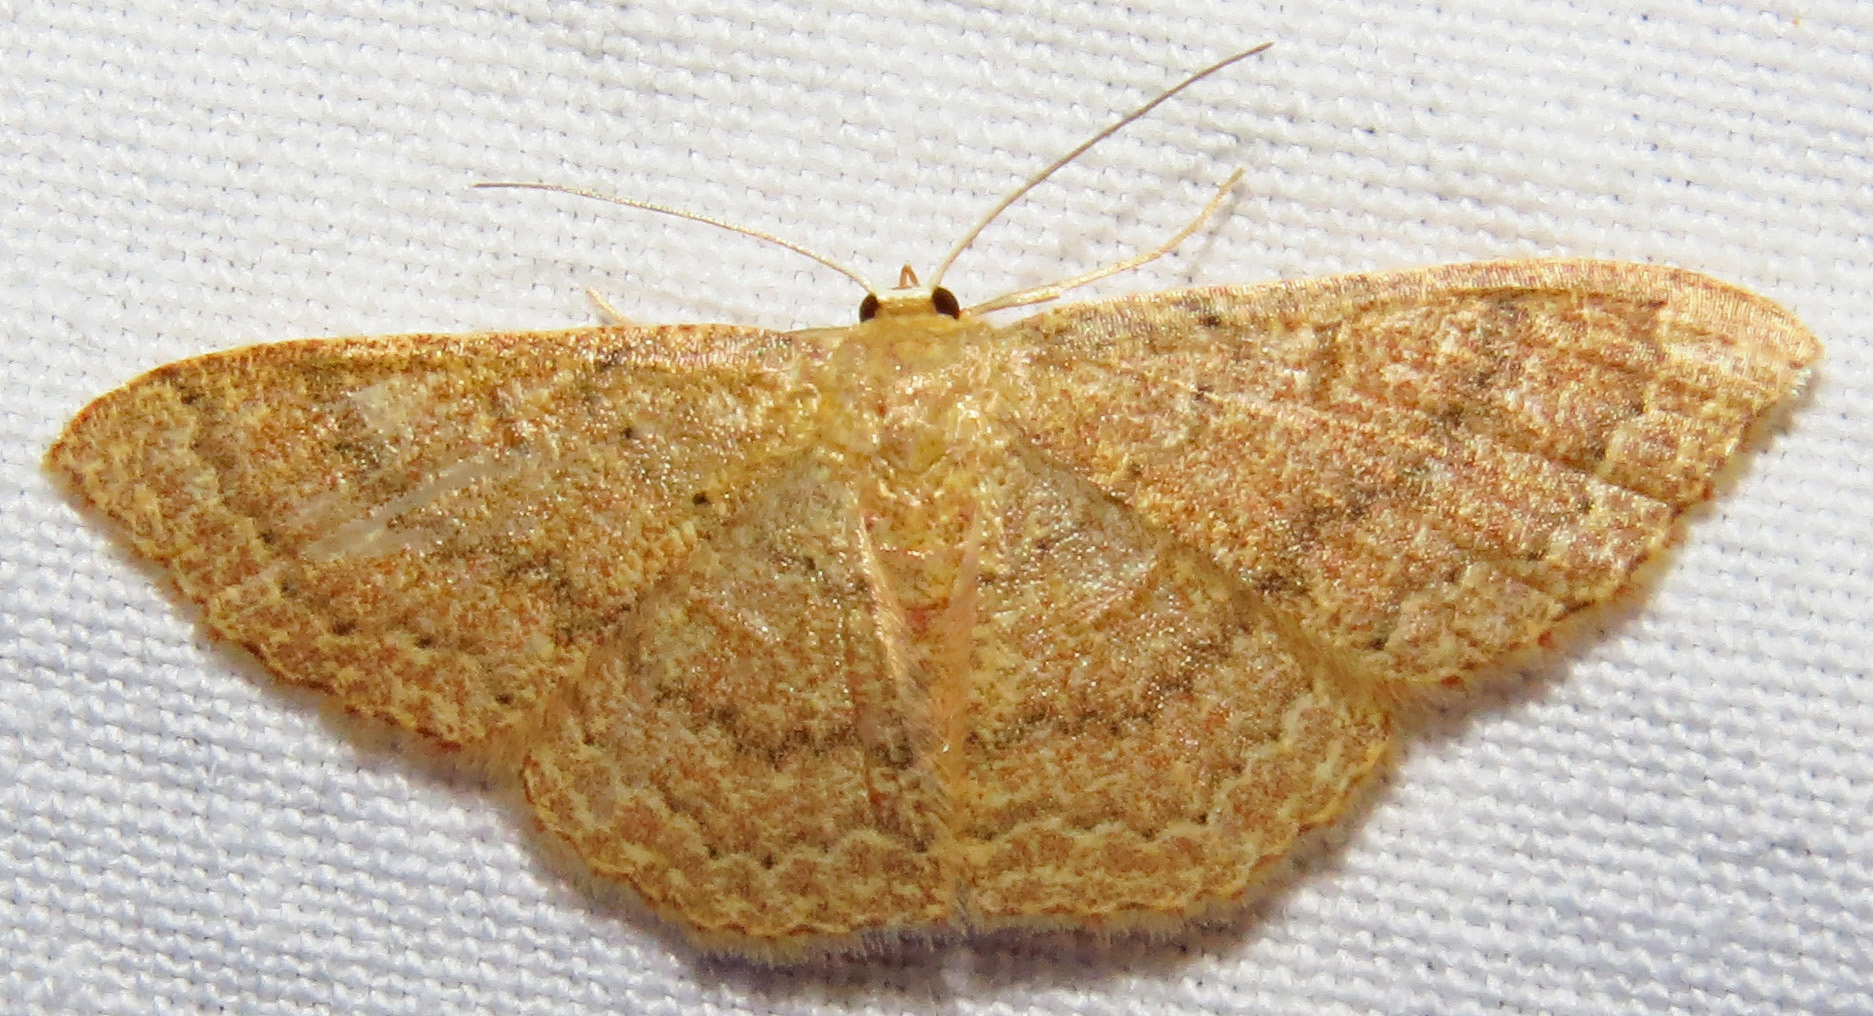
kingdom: Animalia
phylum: Arthropoda
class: Insecta
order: Lepidoptera
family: Geometridae
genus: Pleuroprucha
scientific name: Pleuroprucha insulsaria
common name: Common tan wave
